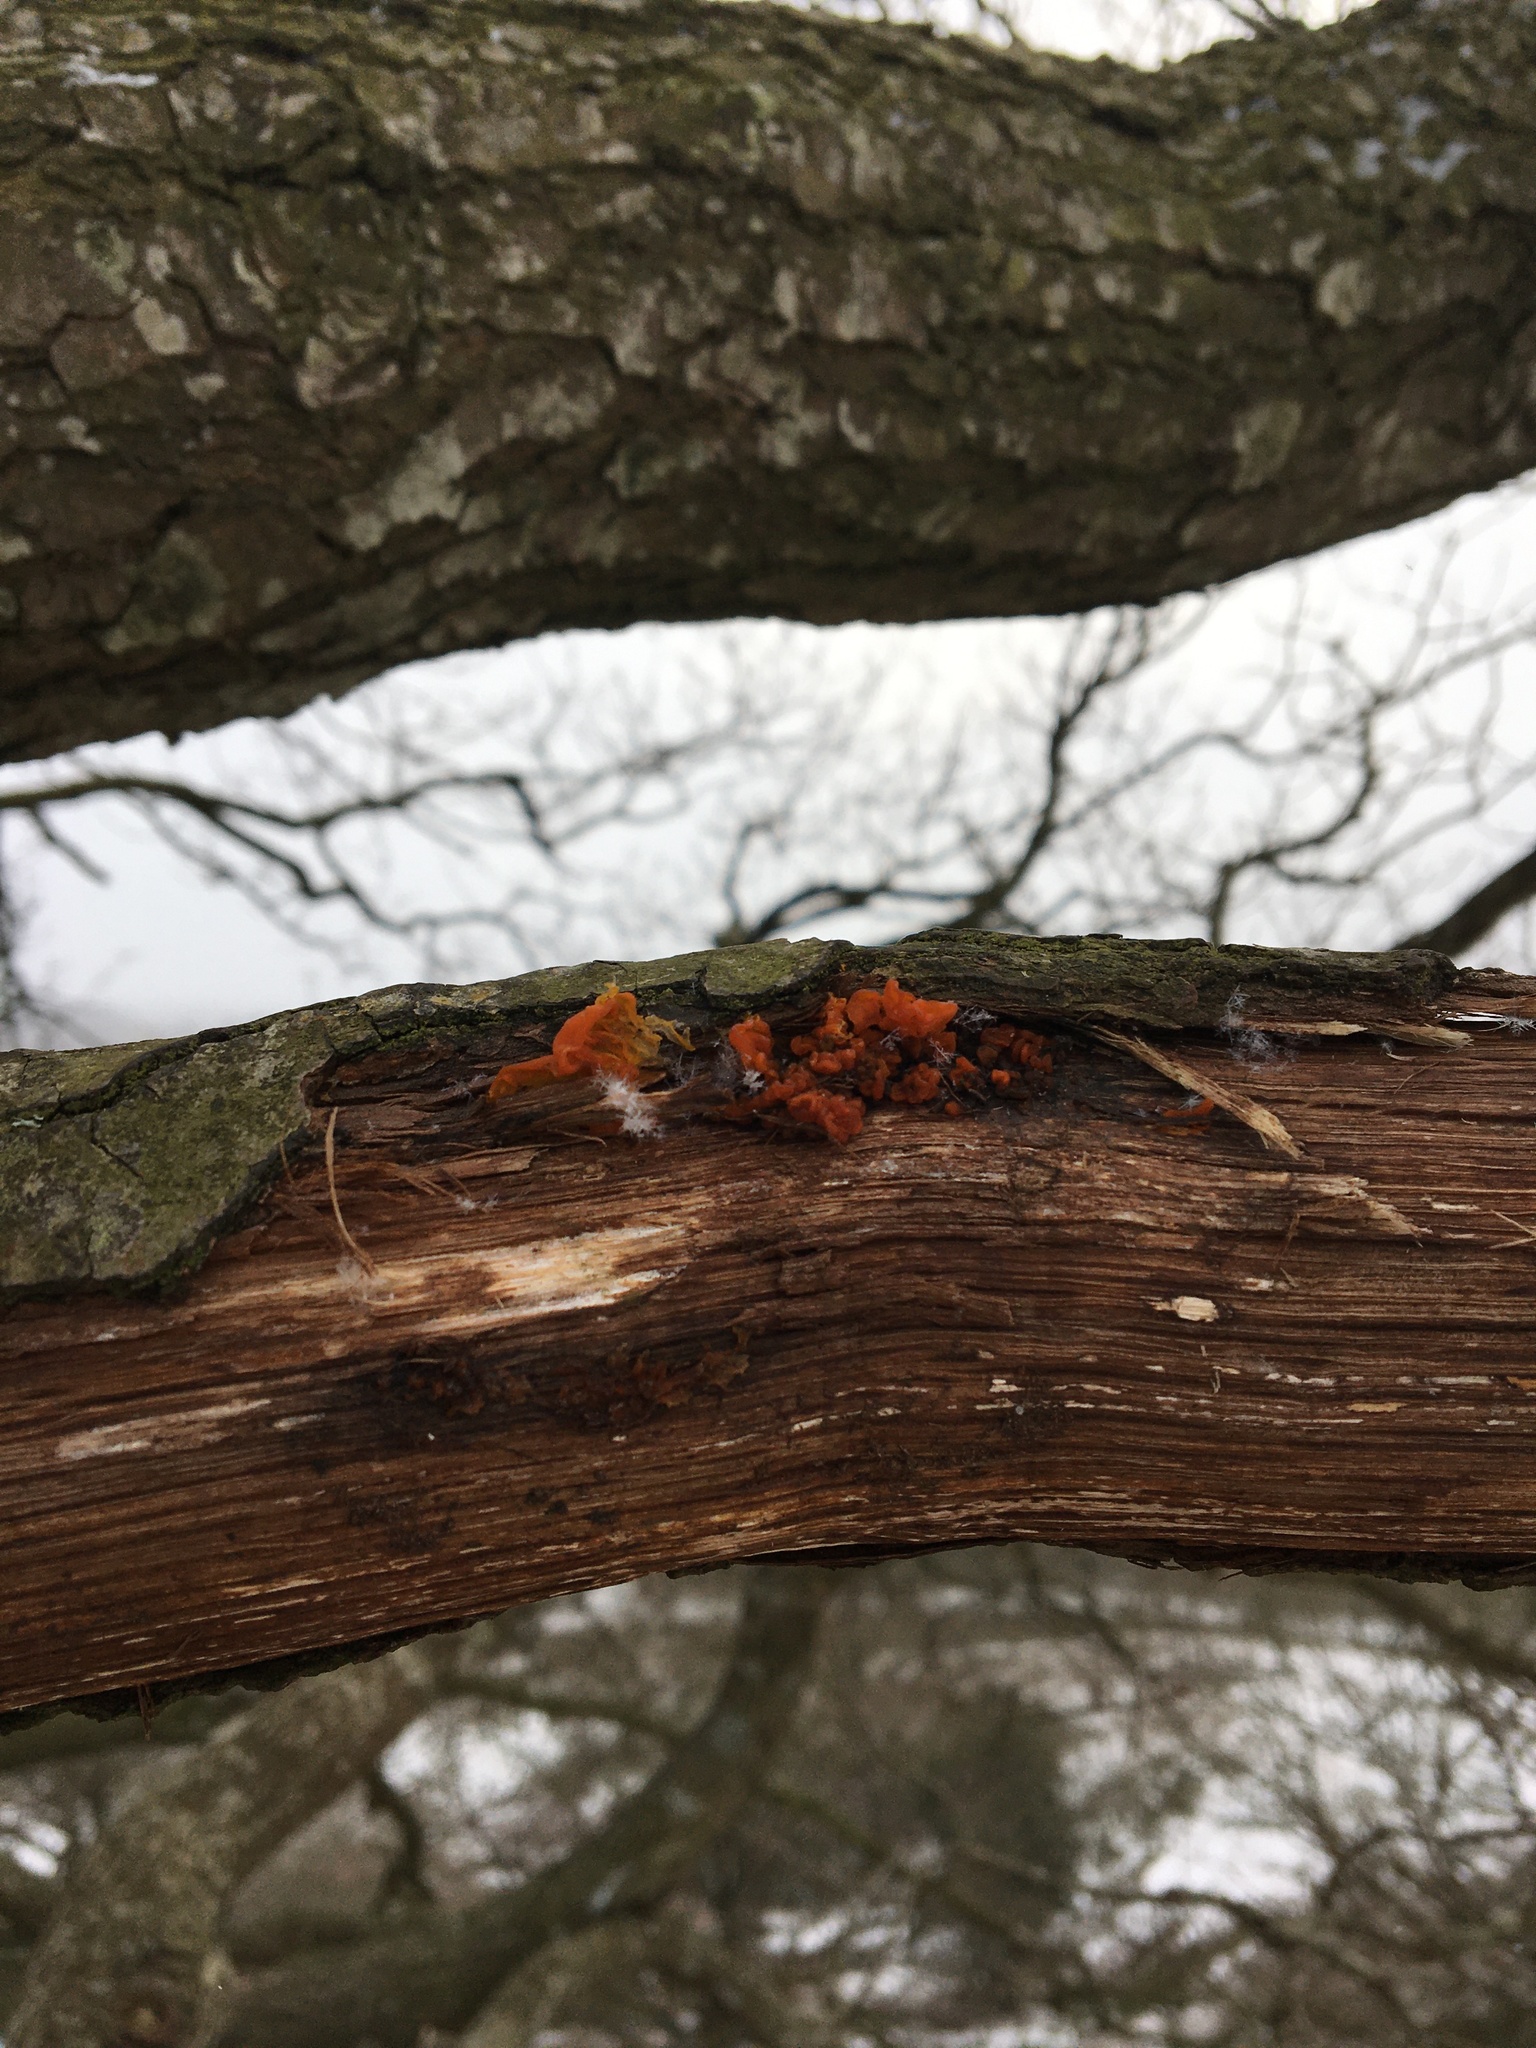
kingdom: Fungi
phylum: Basidiomycota
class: Tremellomycetes
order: Tremellales
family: Tremellaceae
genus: Tremella
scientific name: Tremella mesenterica
